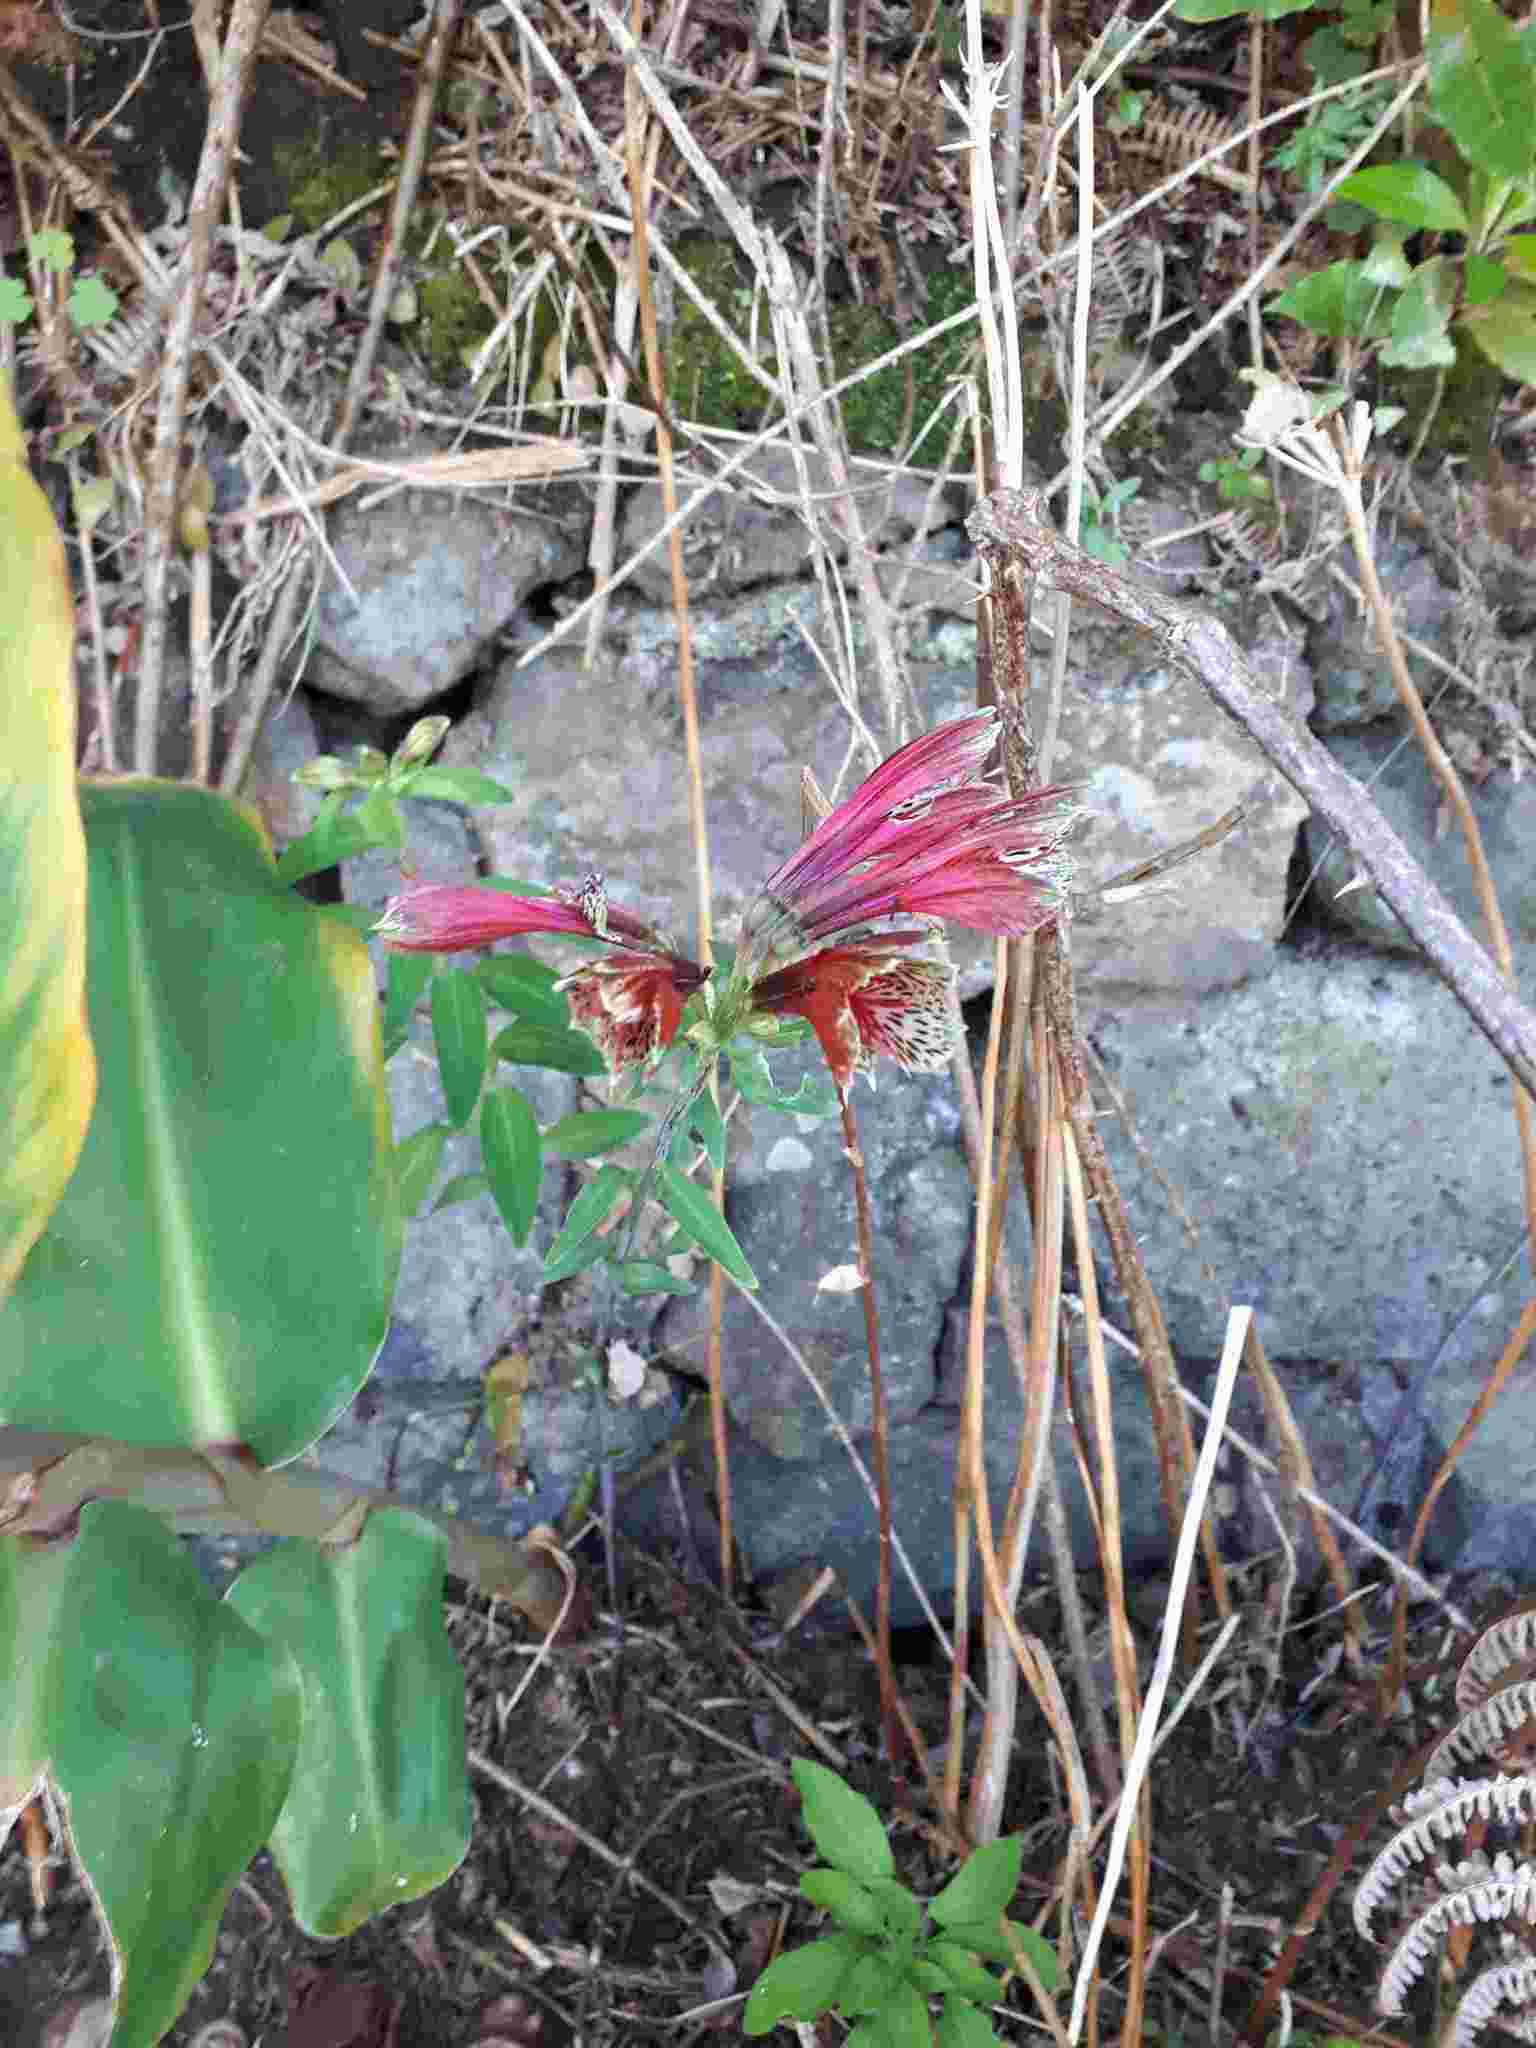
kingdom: Plantae
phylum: Tracheophyta
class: Liliopsida
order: Liliales
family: Alstroemeriaceae
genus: Alstroemeria
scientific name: Alstroemeria brasiliensis
